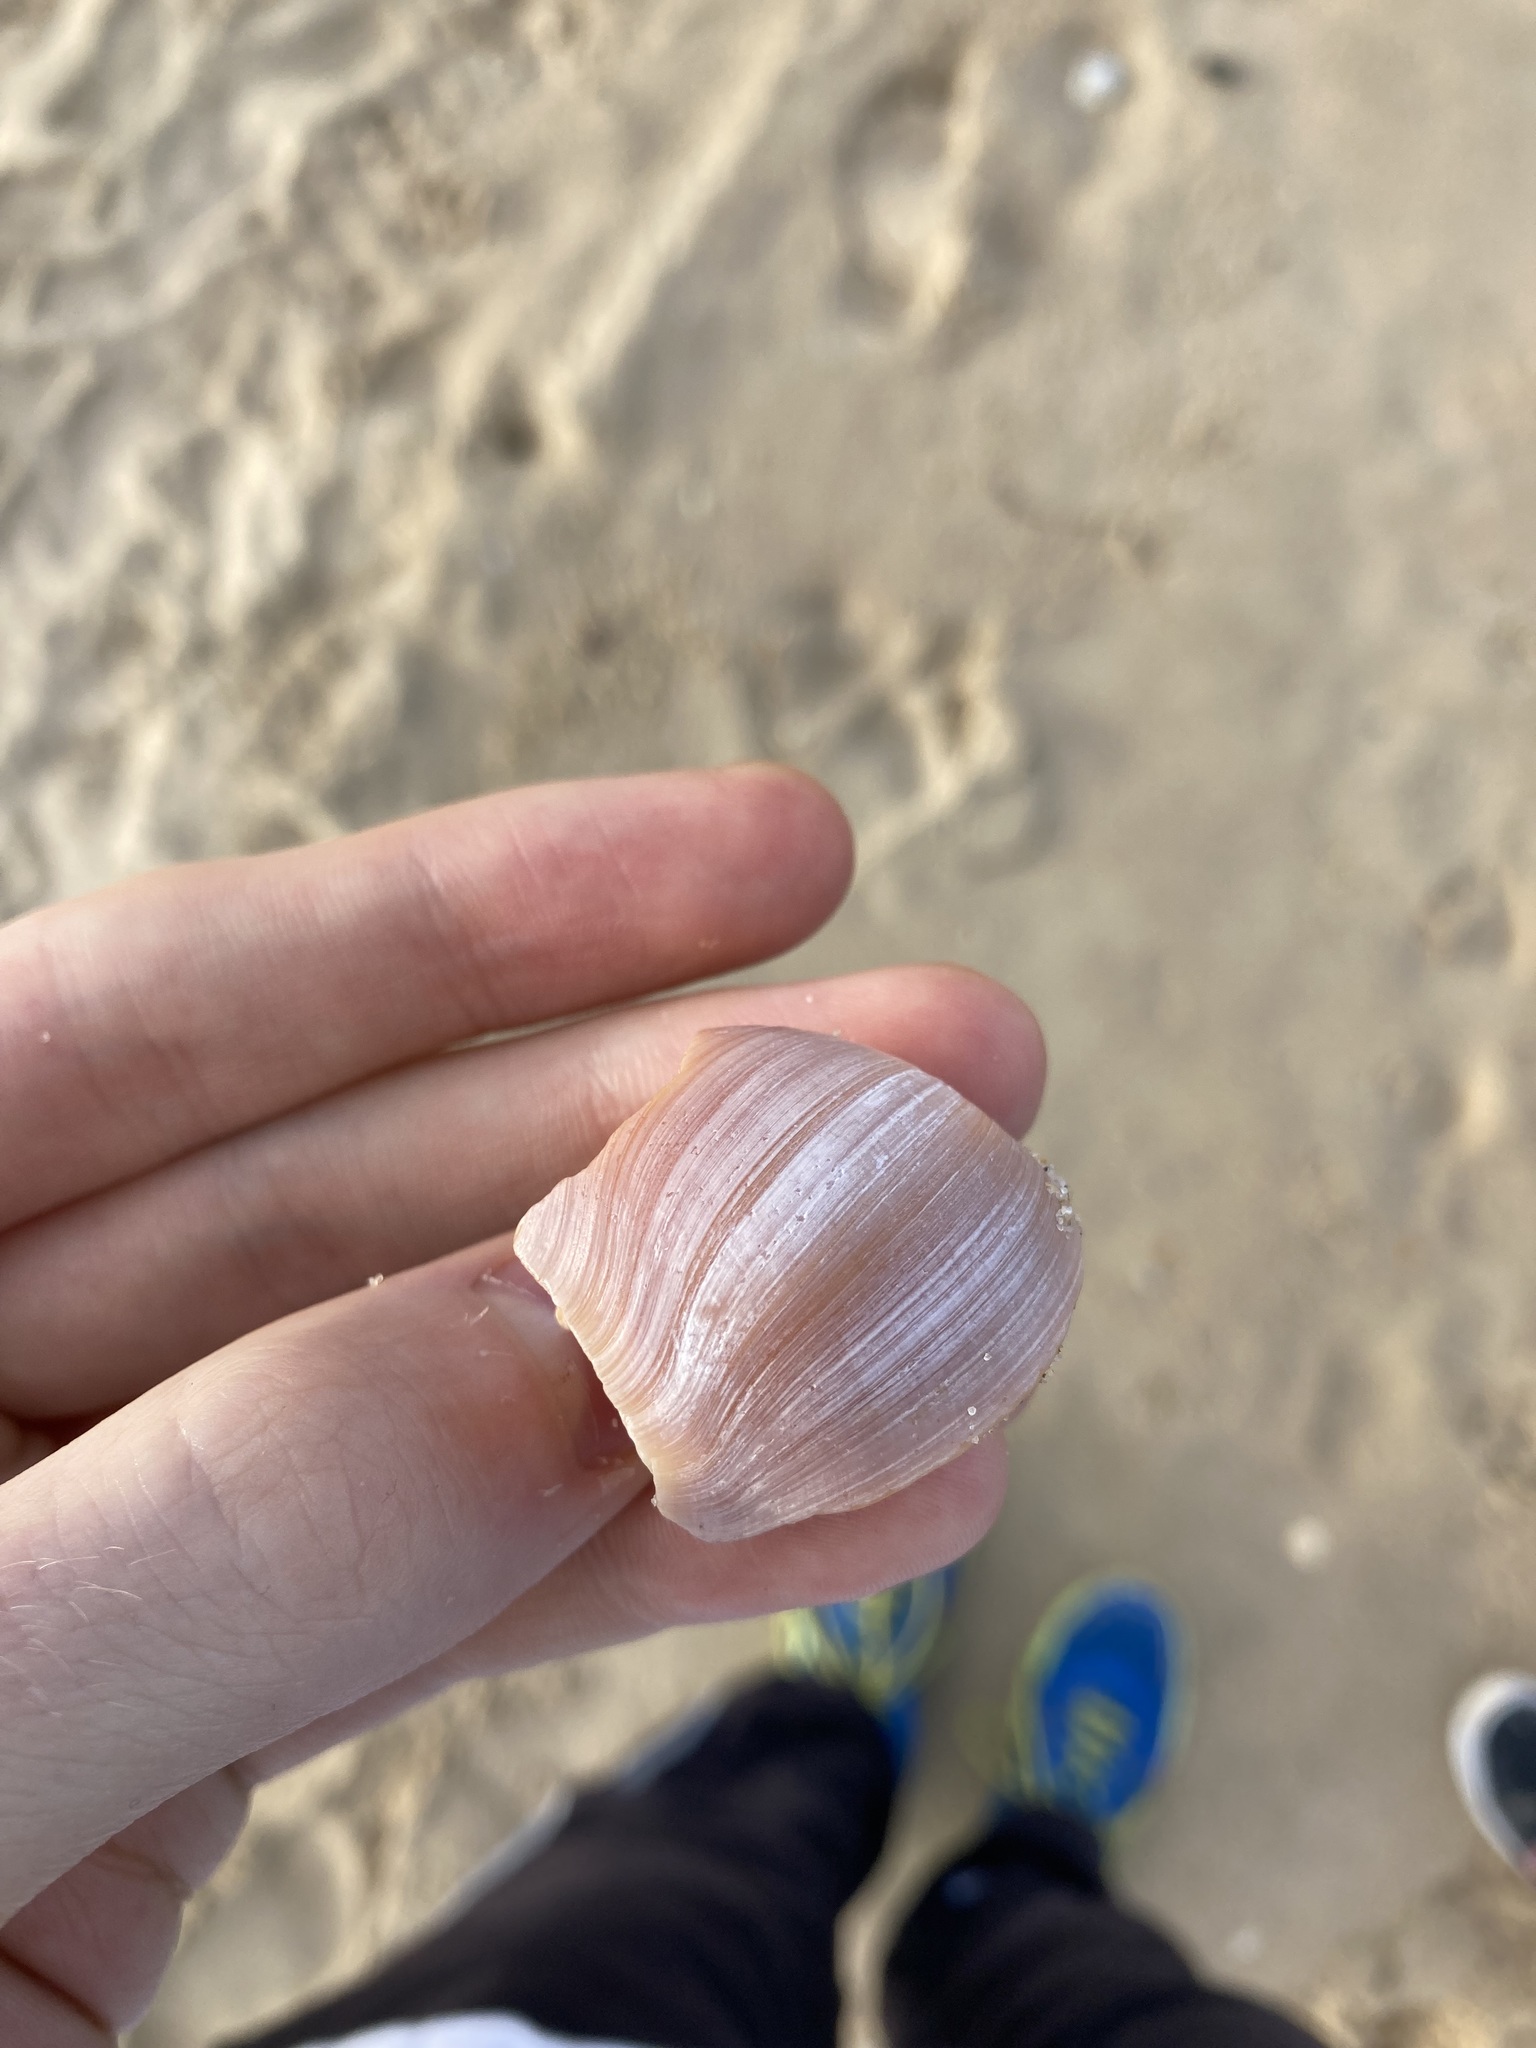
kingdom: Animalia
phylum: Mollusca
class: Gastropoda
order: Littorinimorpha
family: Naticidae
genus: Conuber
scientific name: Conuber sordidum
